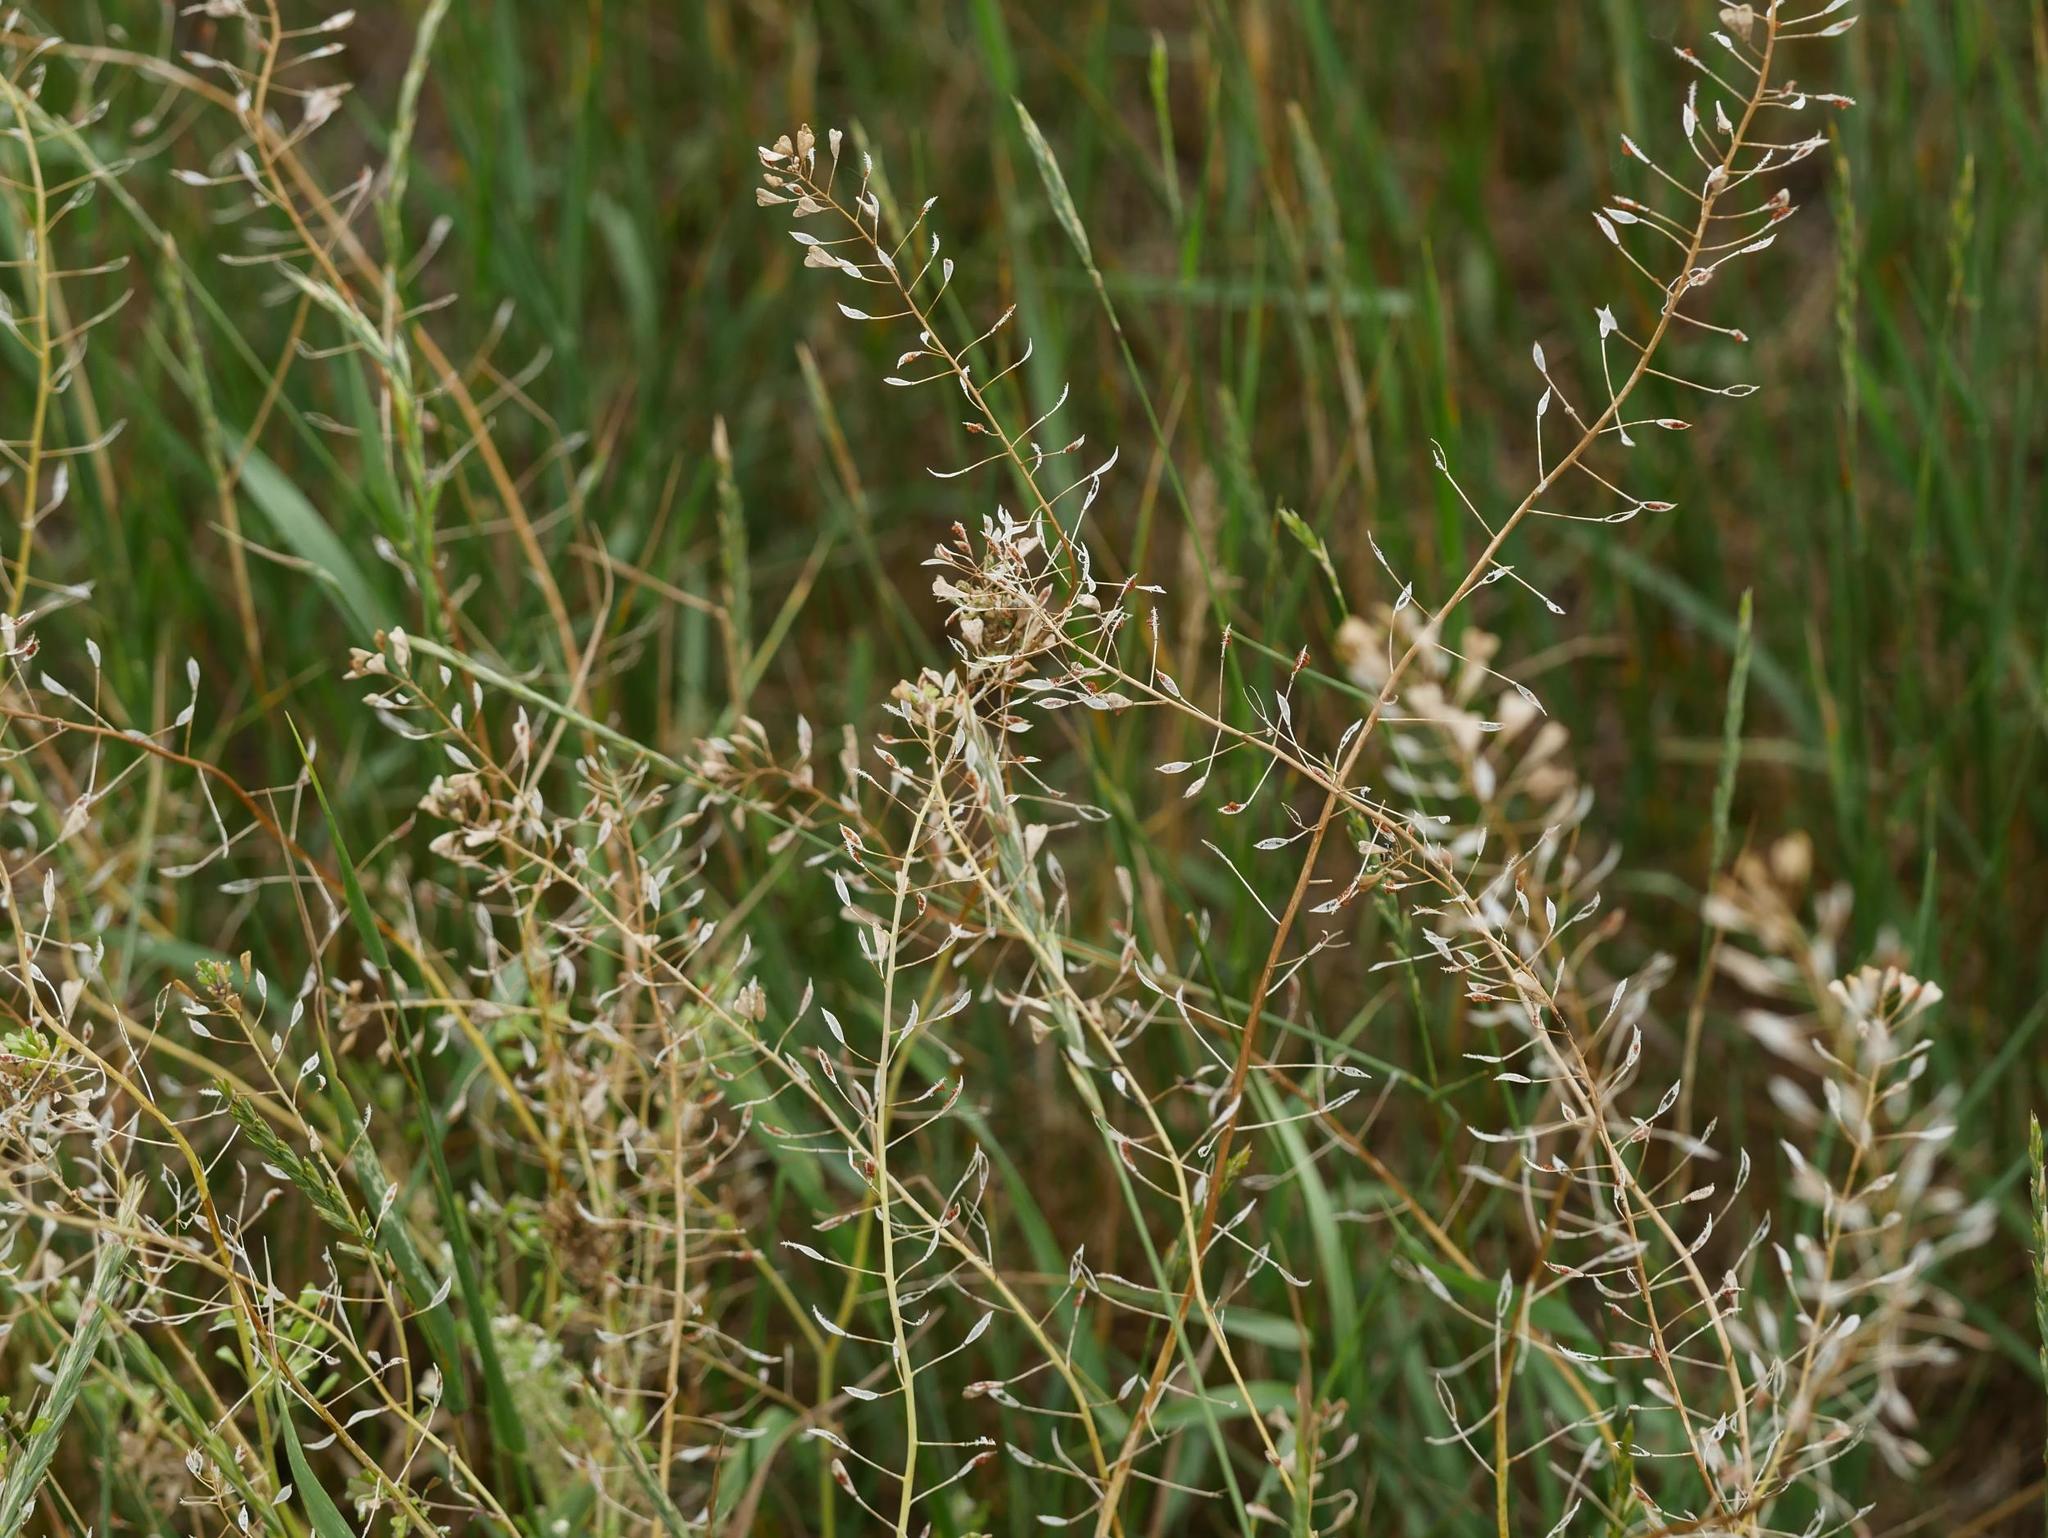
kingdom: Plantae
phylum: Tracheophyta
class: Magnoliopsida
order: Brassicales
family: Brassicaceae
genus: Capsella
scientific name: Capsella bursa-pastoris
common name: Shepherd's purse
